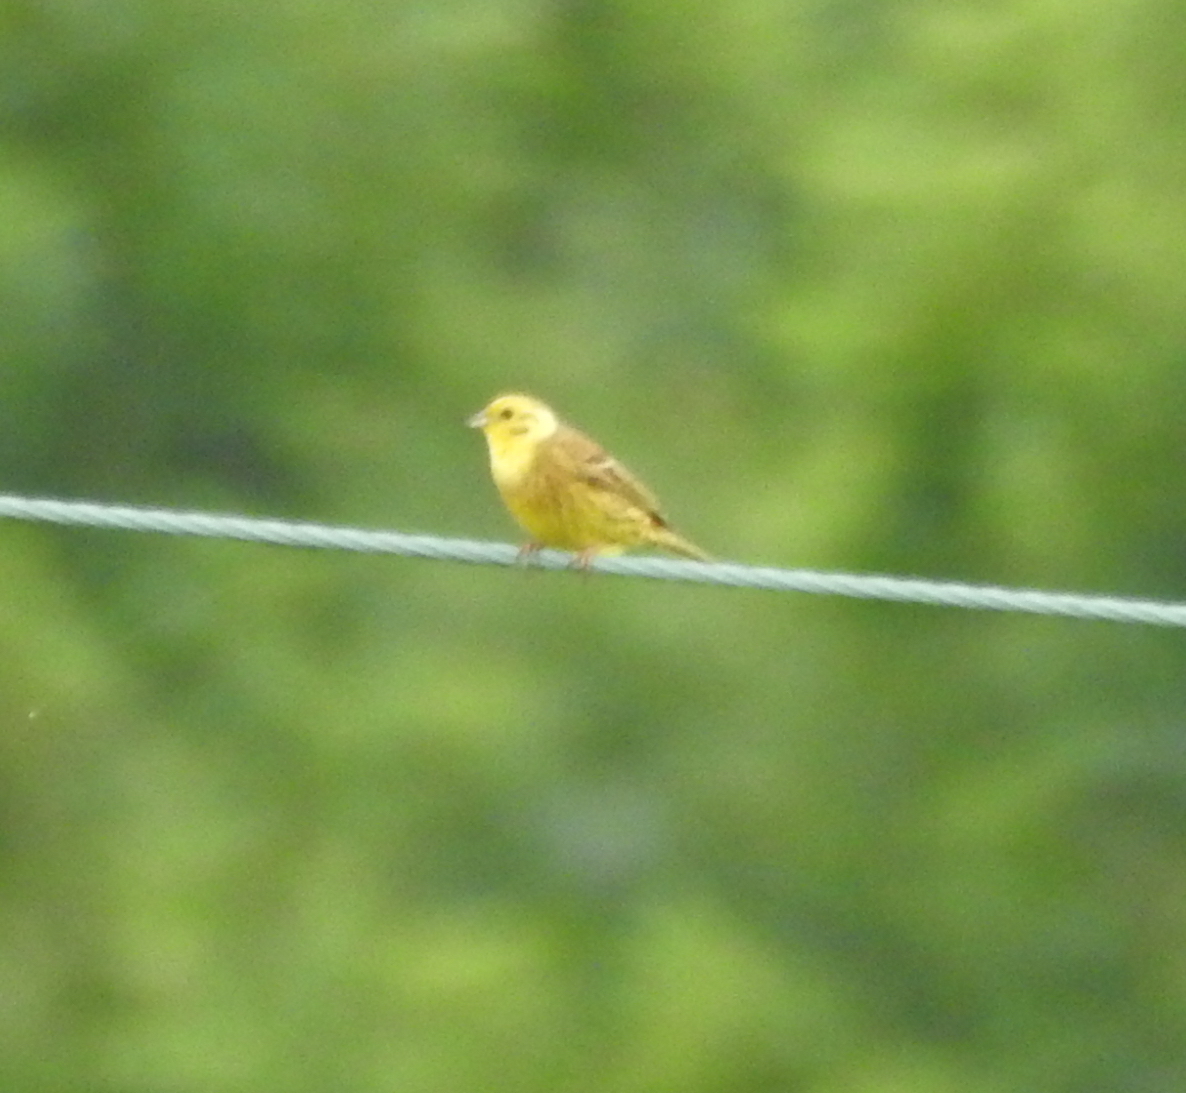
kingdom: Animalia
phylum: Chordata
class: Aves
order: Passeriformes
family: Emberizidae
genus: Emberiza
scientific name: Emberiza citrinella
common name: Yellowhammer
